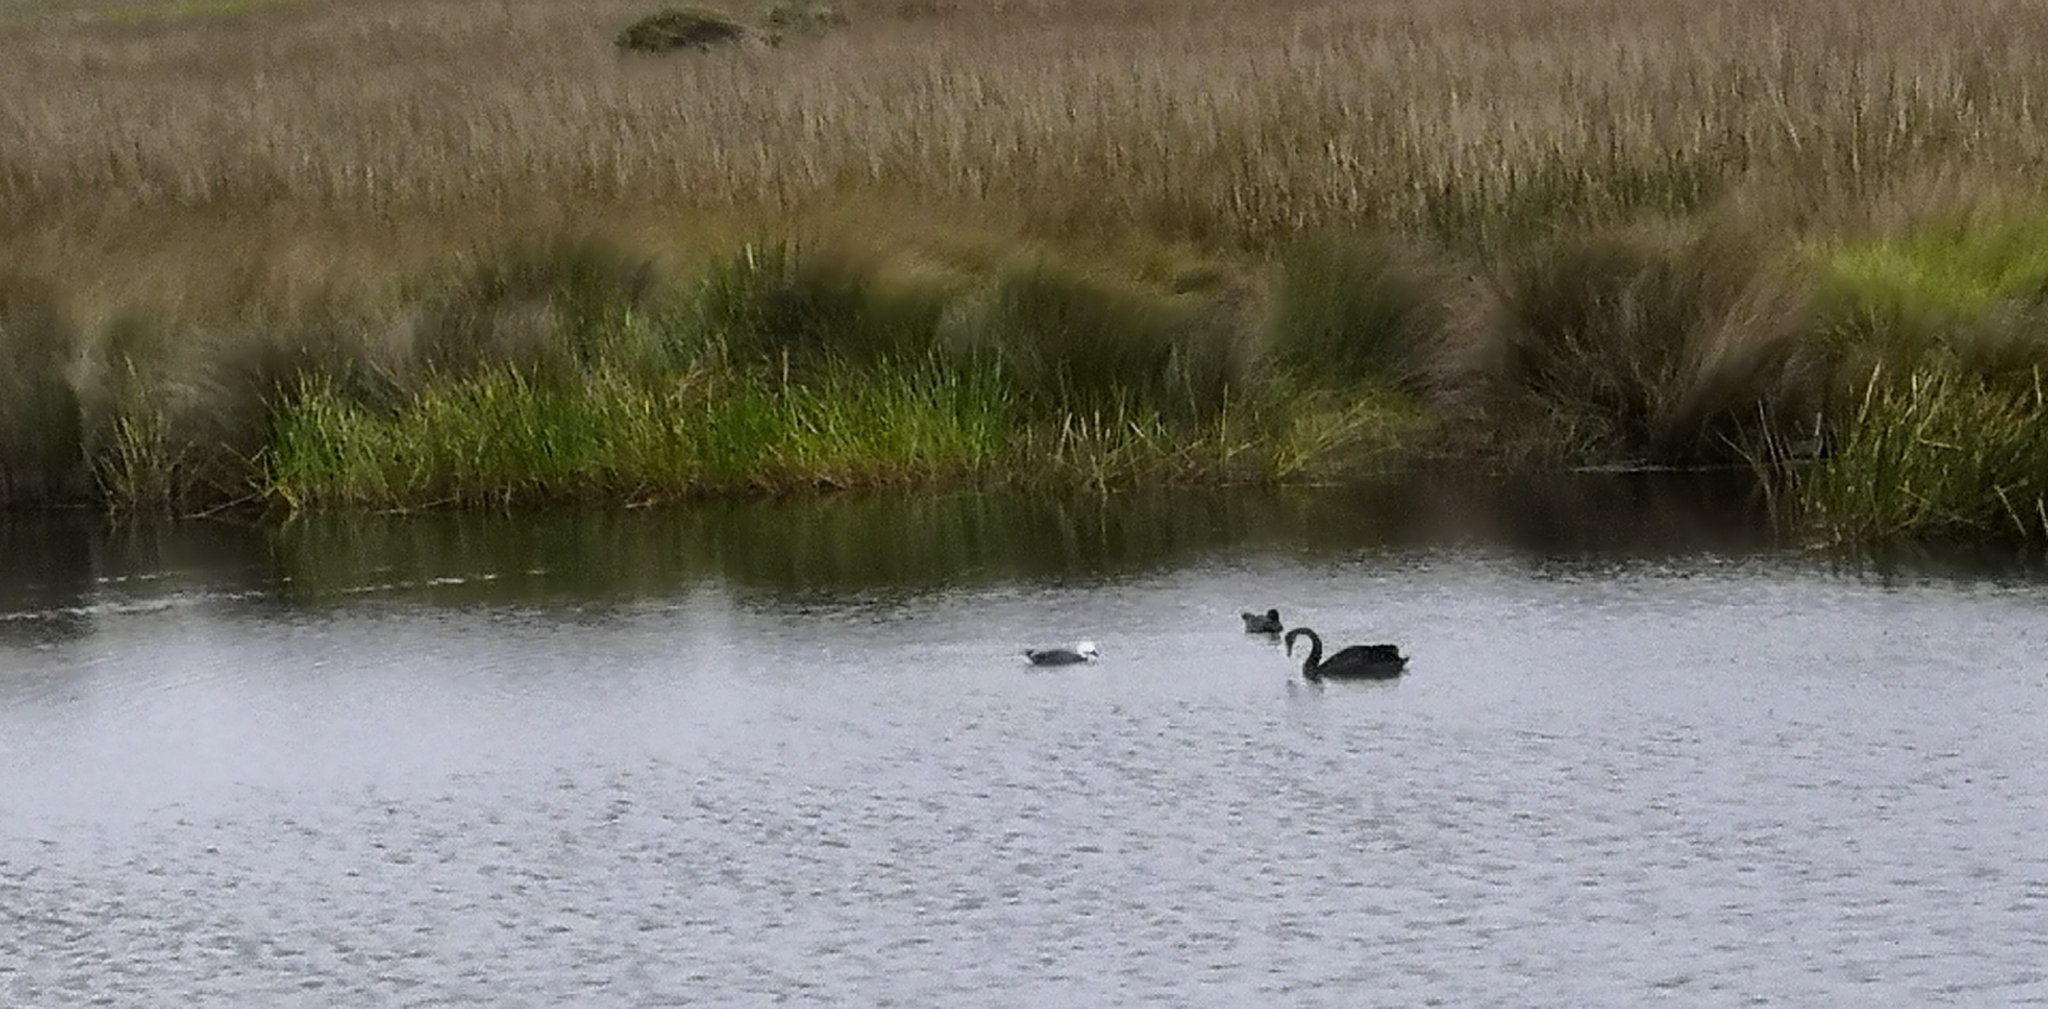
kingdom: Animalia
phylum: Chordata
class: Aves
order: Anseriformes
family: Anatidae
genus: Tadorna
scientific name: Tadorna variegata
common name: Paradise shelduck
